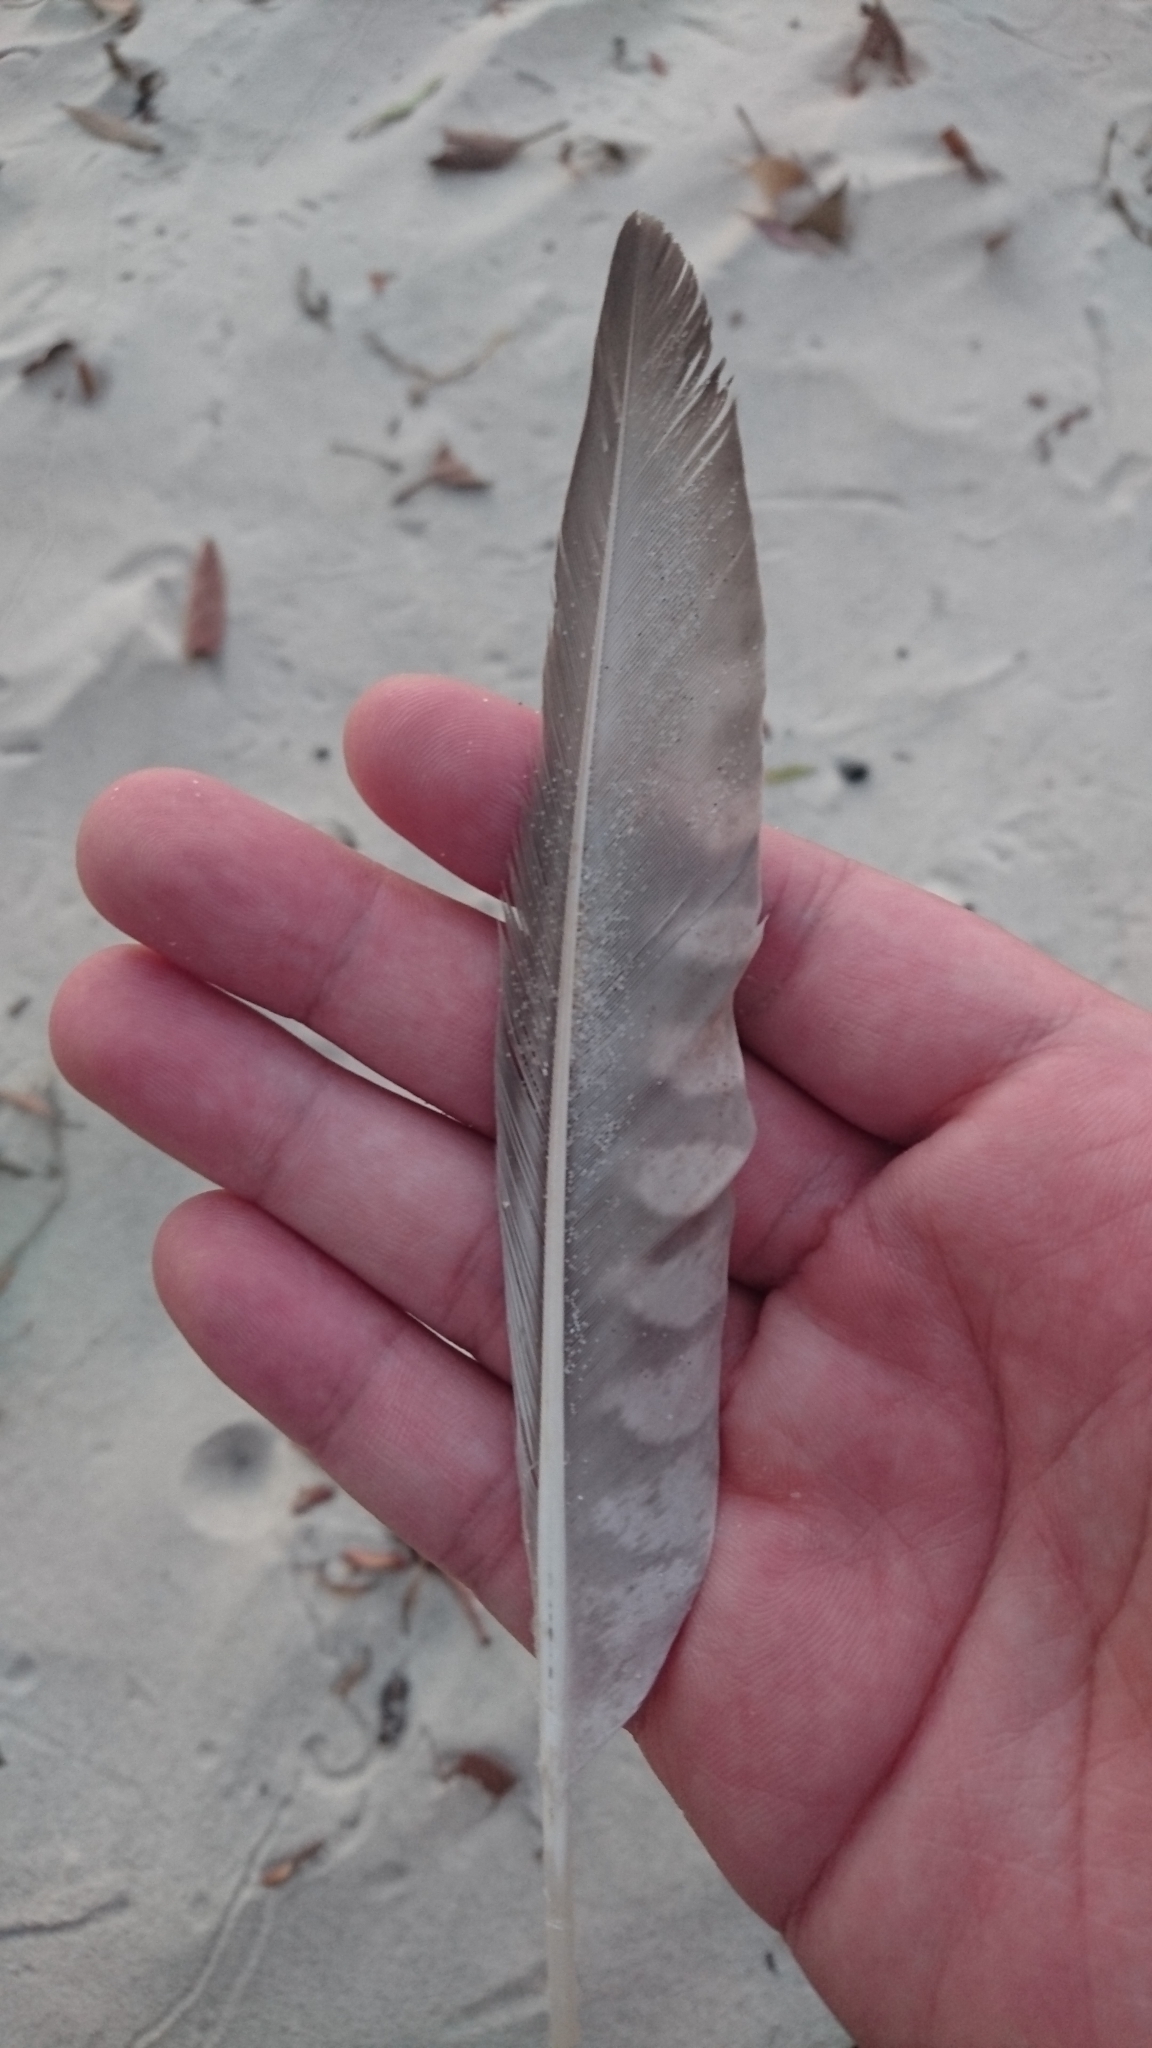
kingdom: Animalia
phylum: Chordata
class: Aves
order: Charadriiformes
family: Scolopacidae
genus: Numenius
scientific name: Numenius phaeopus
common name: Whimbrel
